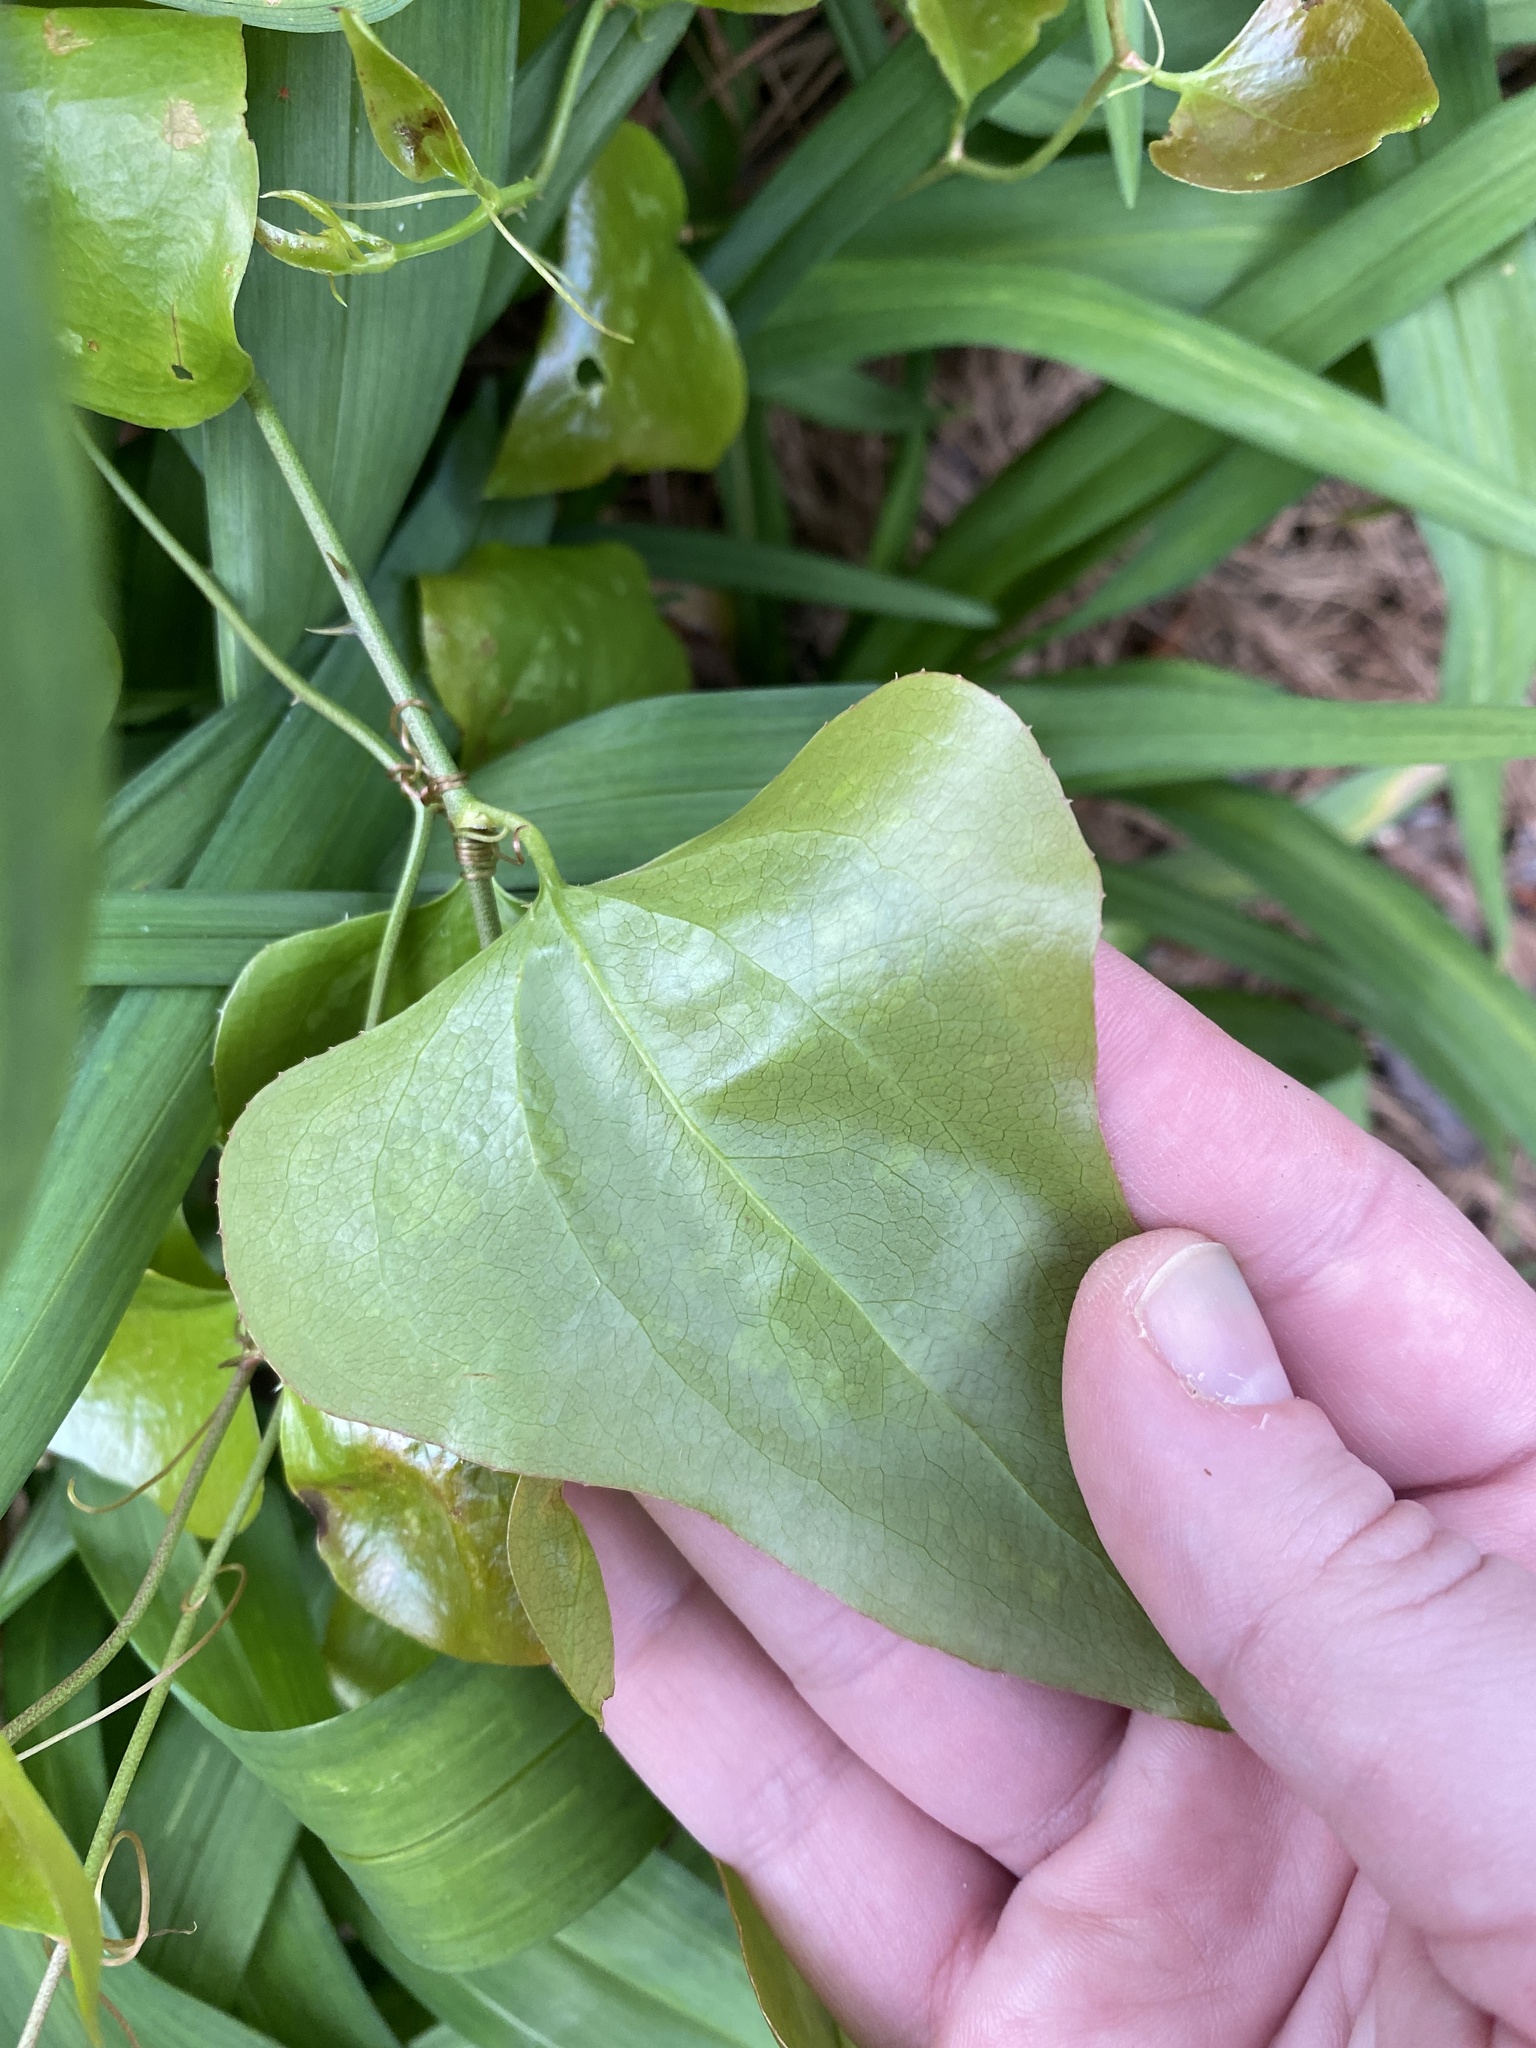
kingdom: Plantae
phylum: Tracheophyta
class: Liliopsida
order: Liliales
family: Smilacaceae
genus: Smilax
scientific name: Smilax bona-nox
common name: Catbrier
